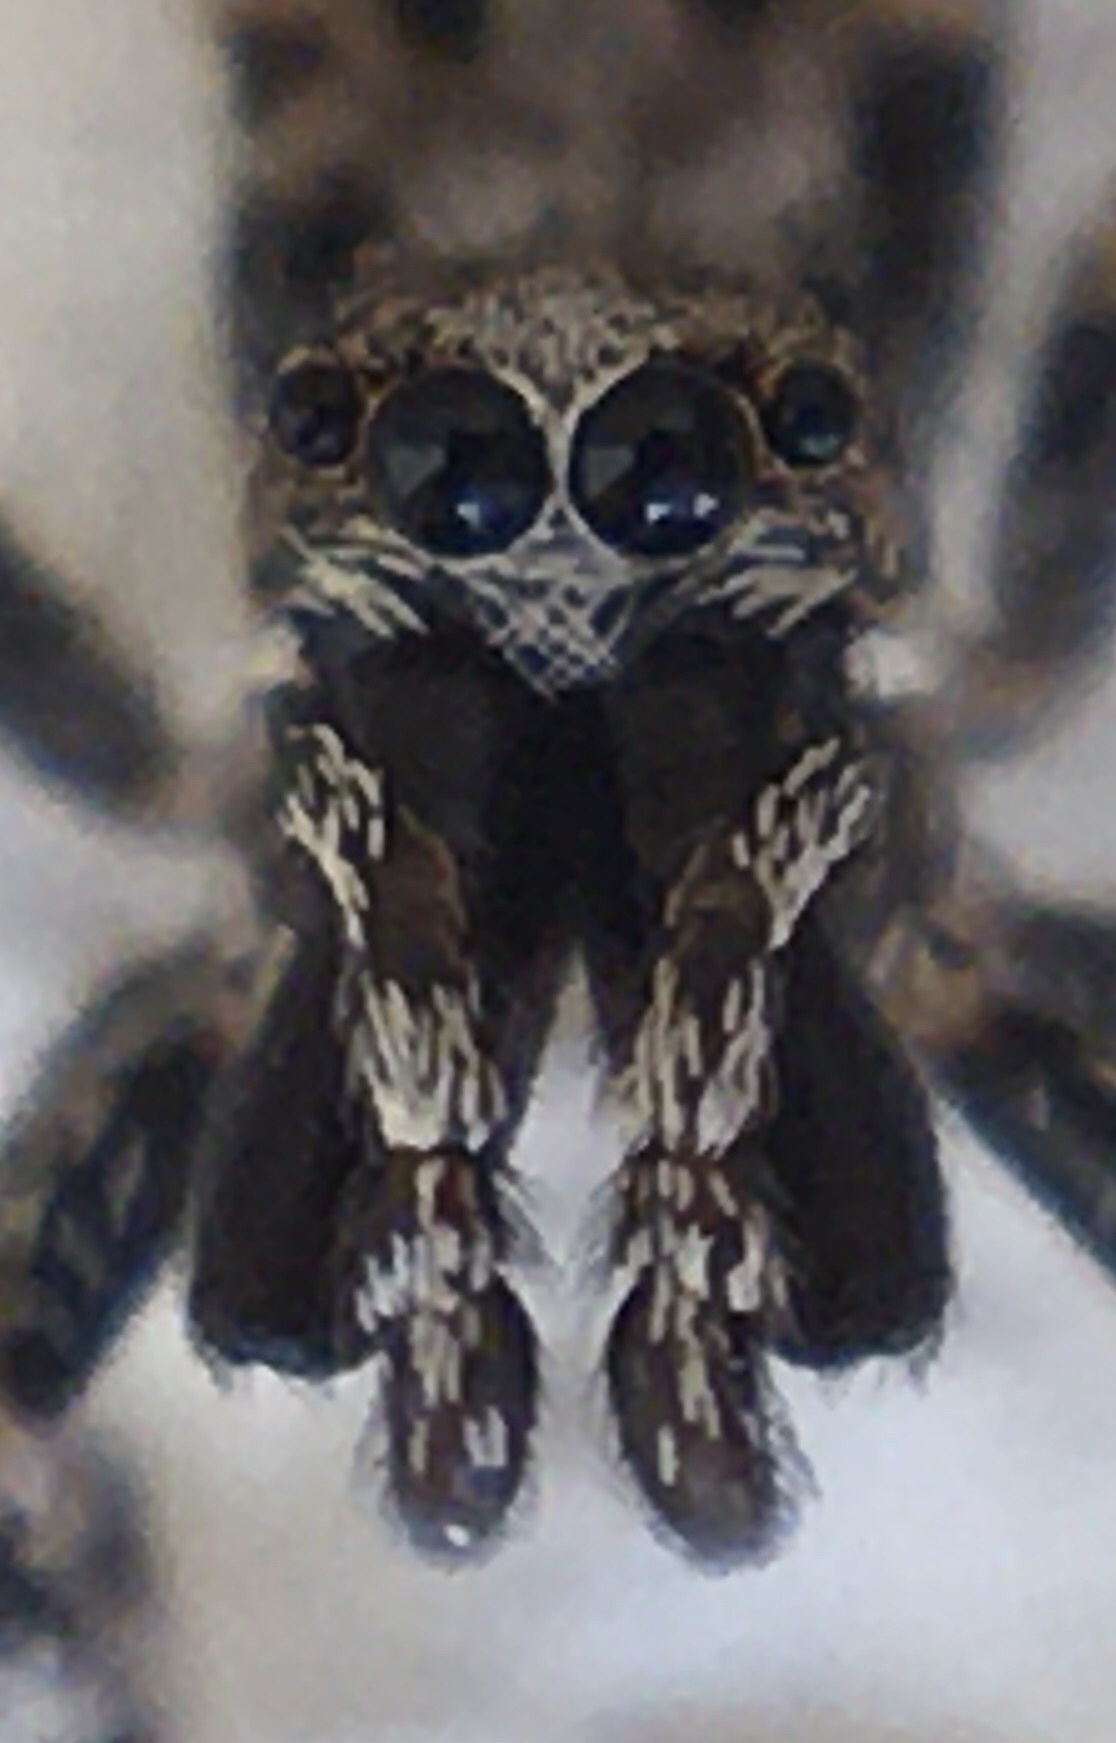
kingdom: Animalia
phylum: Arthropoda
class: Arachnida
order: Araneae
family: Salticidae
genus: Salticus
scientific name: Salticus mutabilis
